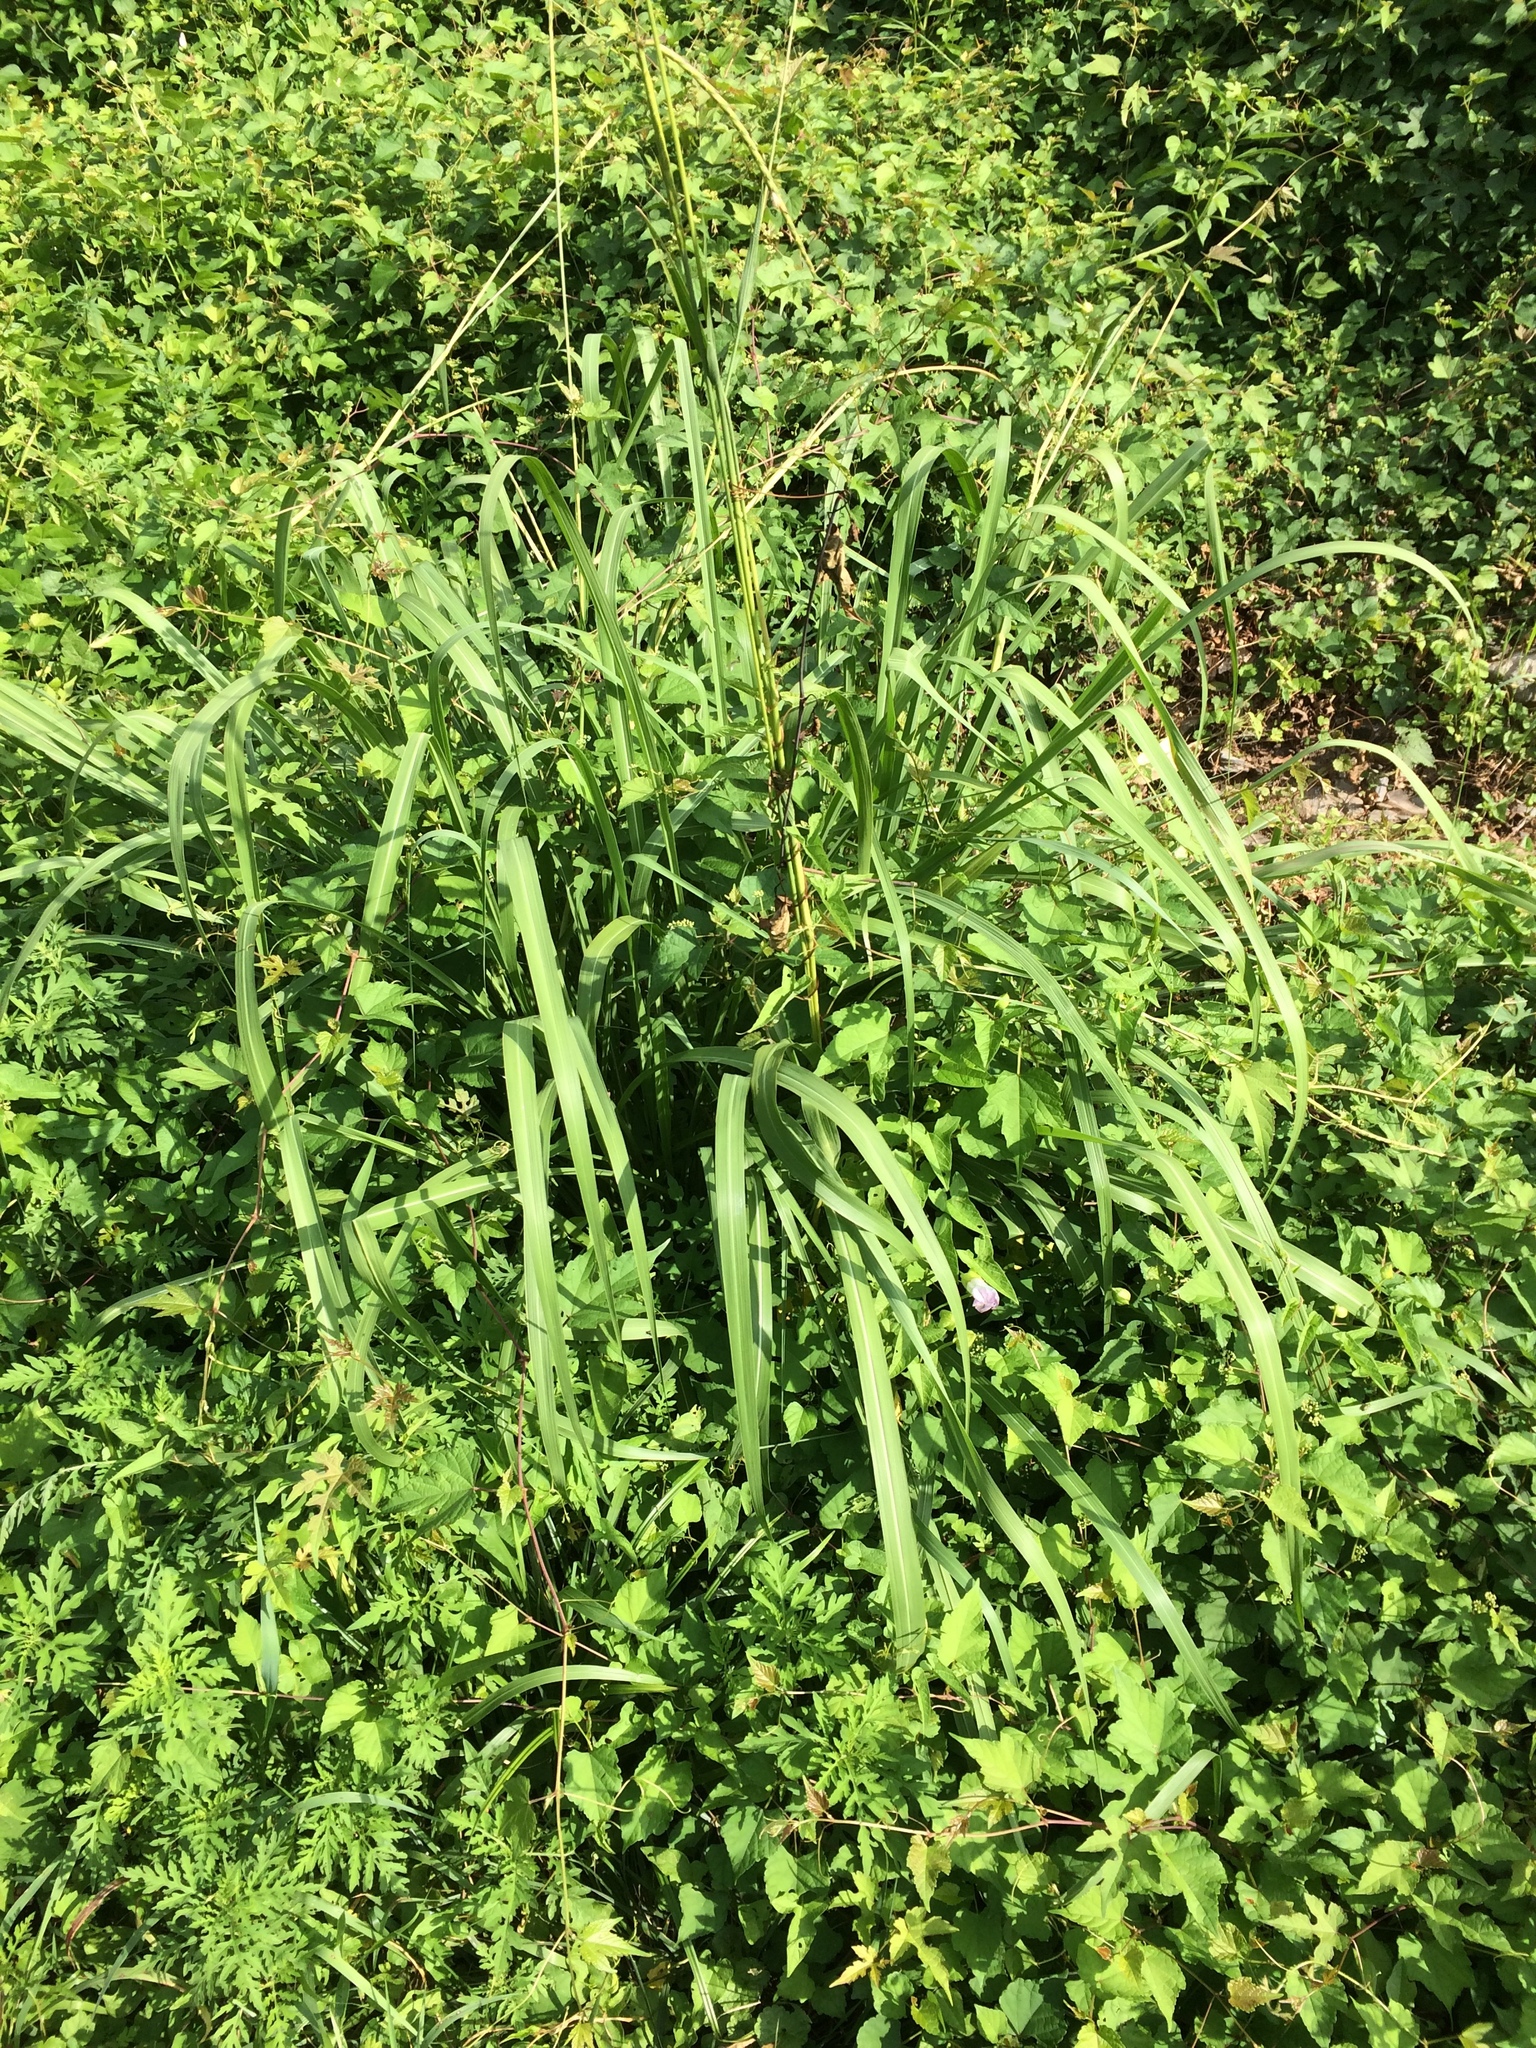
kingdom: Plantae
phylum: Tracheophyta
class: Liliopsida
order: Poales
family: Poaceae
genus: Tripsacum
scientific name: Tripsacum dactyloides
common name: Buffalo-grass
